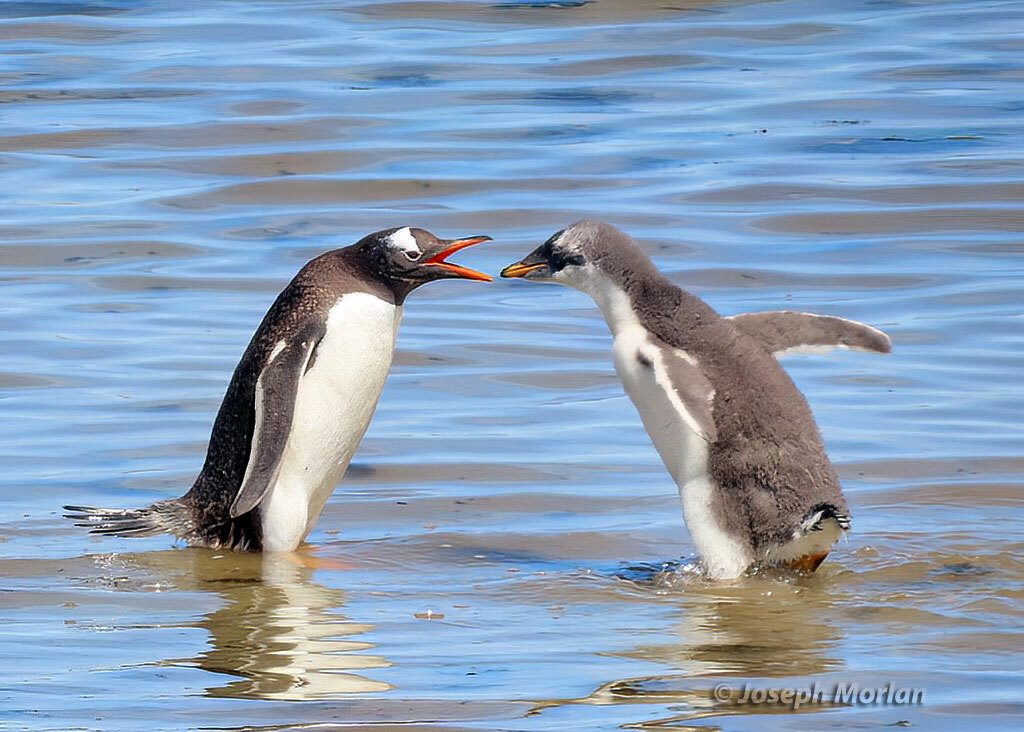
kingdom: Animalia
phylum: Chordata
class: Aves
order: Sphenisciformes
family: Spheniscidae
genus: Pygoscelis
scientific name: Pygoscelis papua
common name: Gentoo penguin
